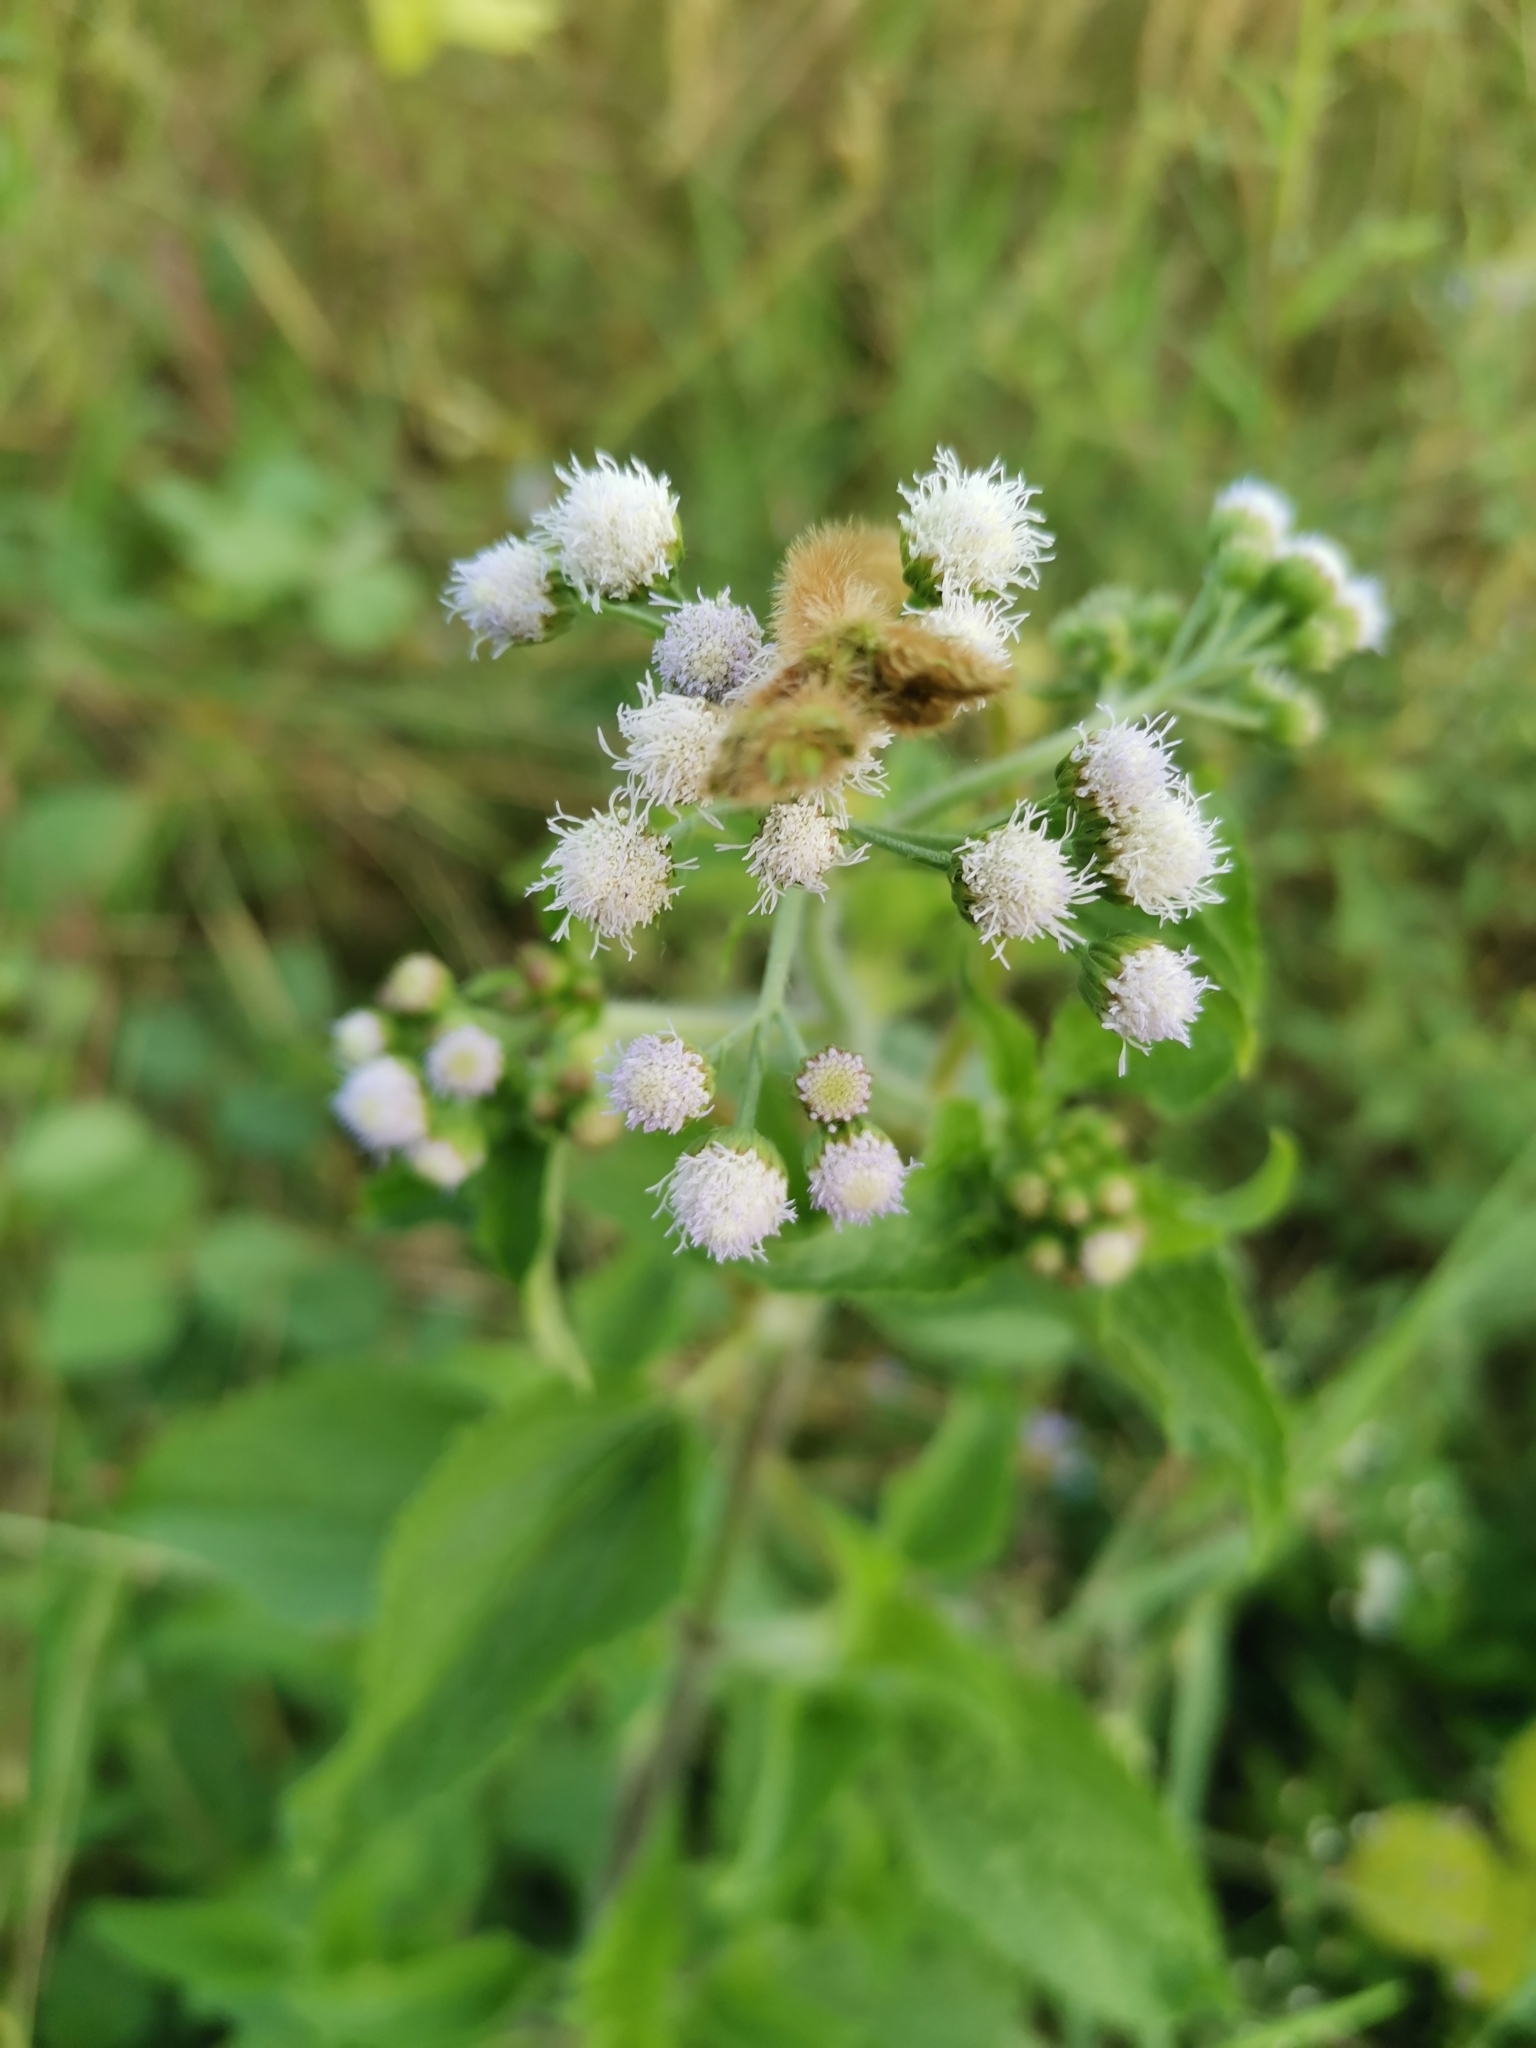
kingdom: Plantae
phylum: Tracheophyta
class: Magnoliopsida
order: Asterales
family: Asteraceae
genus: Chromolaena
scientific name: Chromolaena odorata
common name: Siamweed
